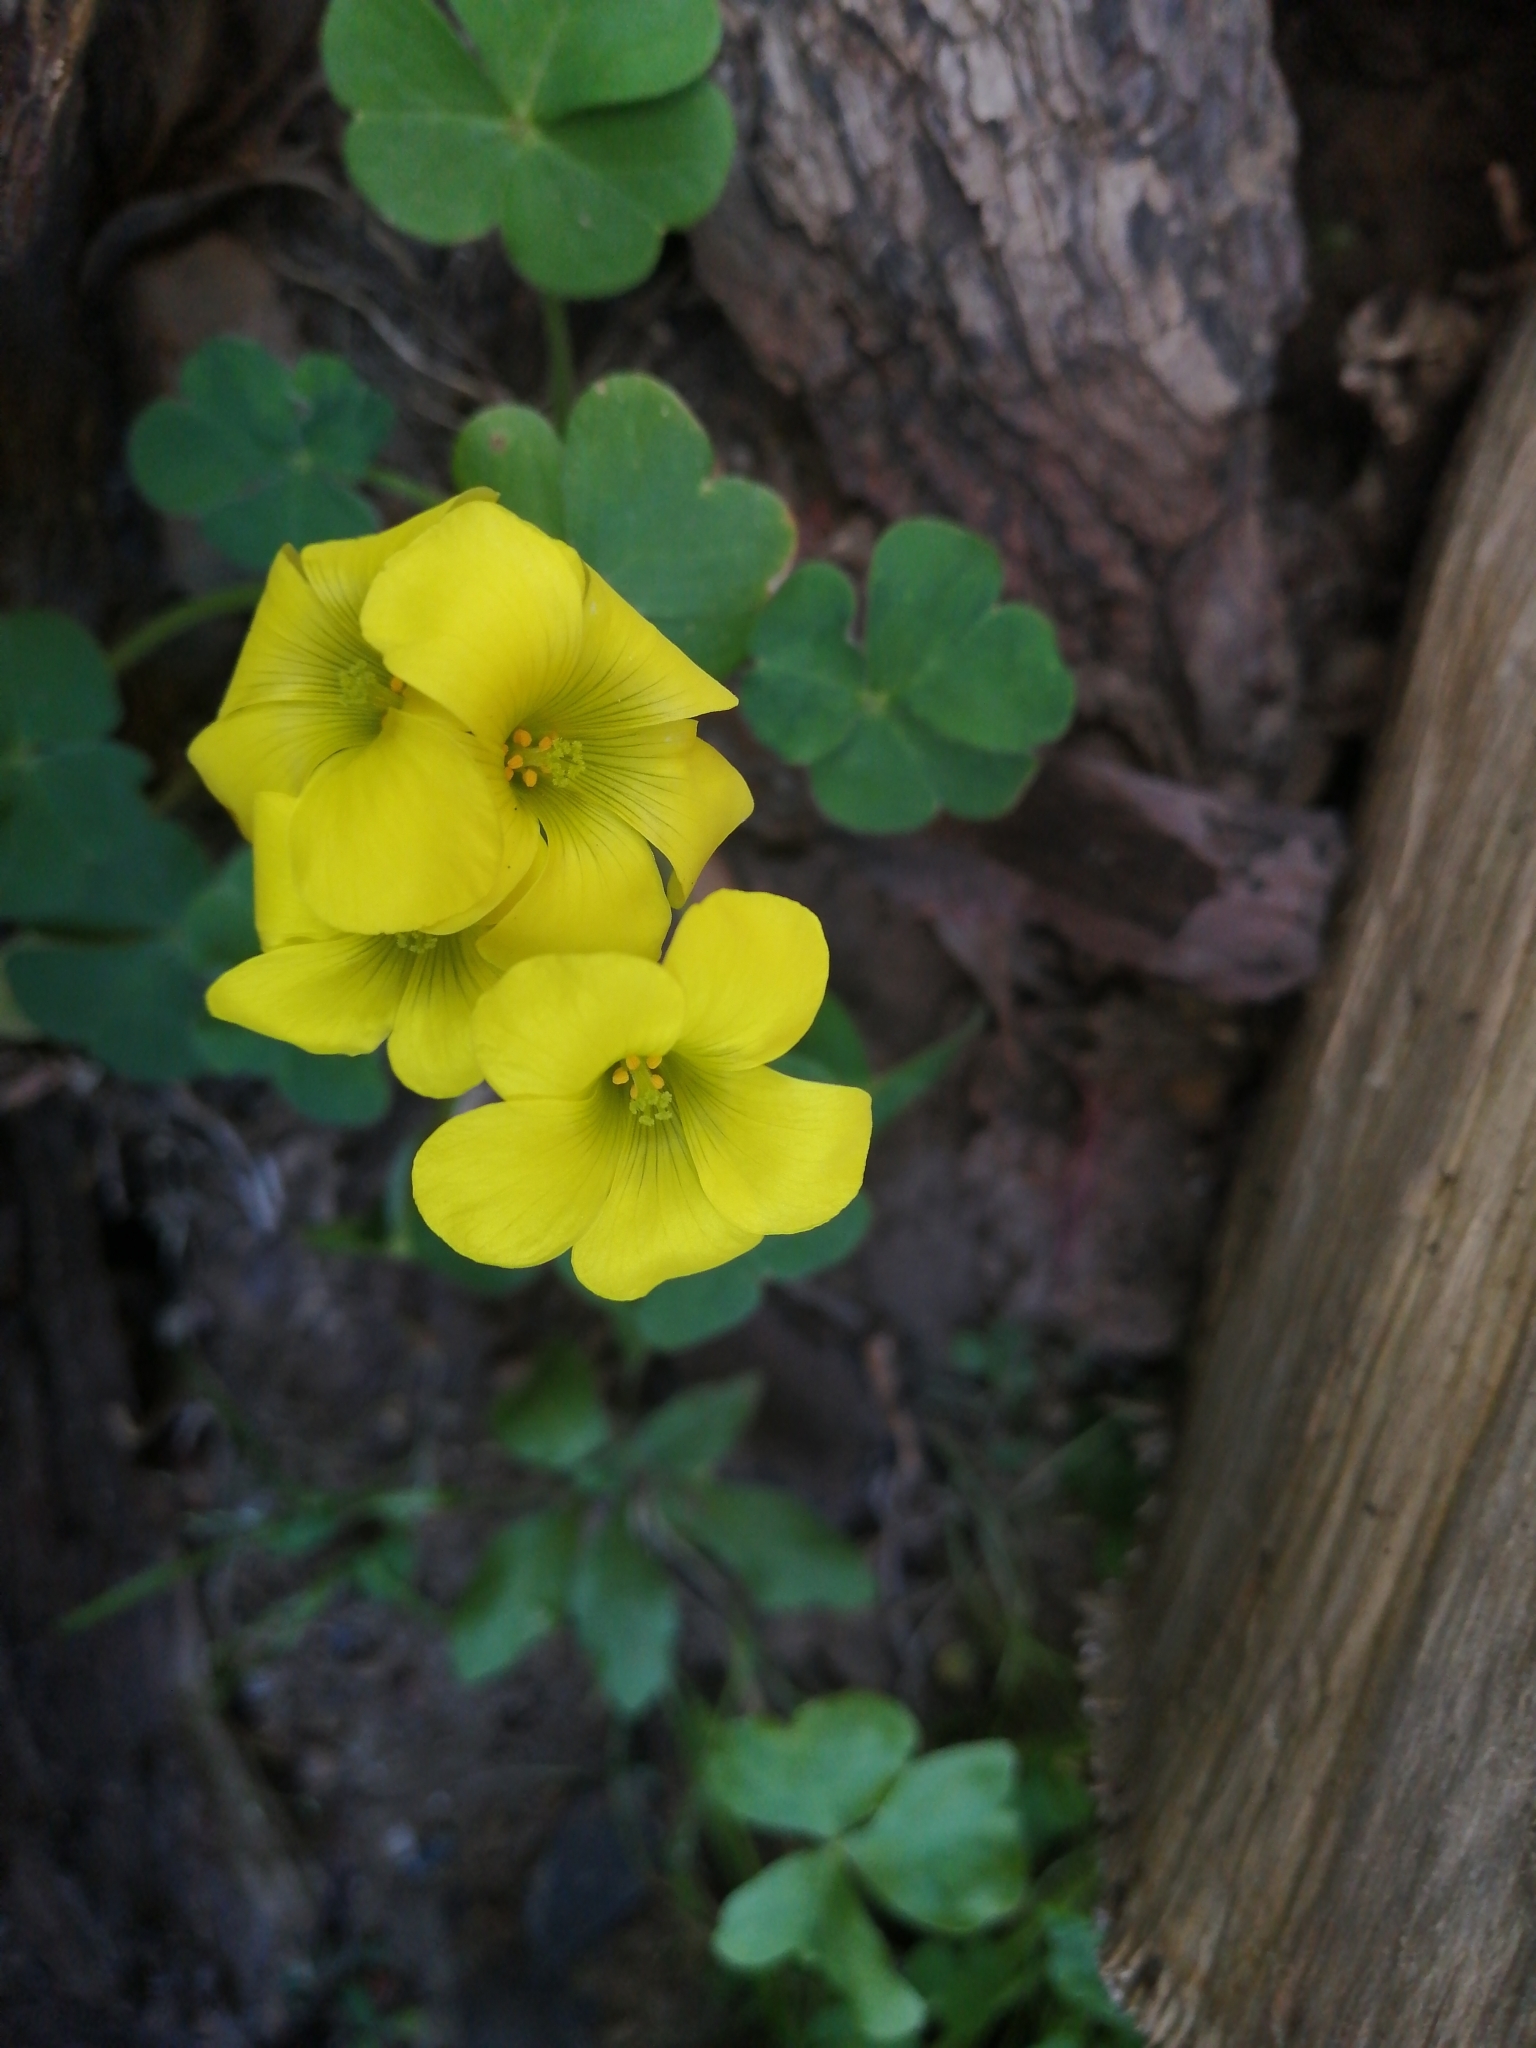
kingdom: Plantae
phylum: Tracheophyta
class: Magnoliopsida
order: Oxalidales
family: Oxalidaceae
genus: Oxalis
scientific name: Oxalis pes-caprae
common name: Bermuda-buttercup
